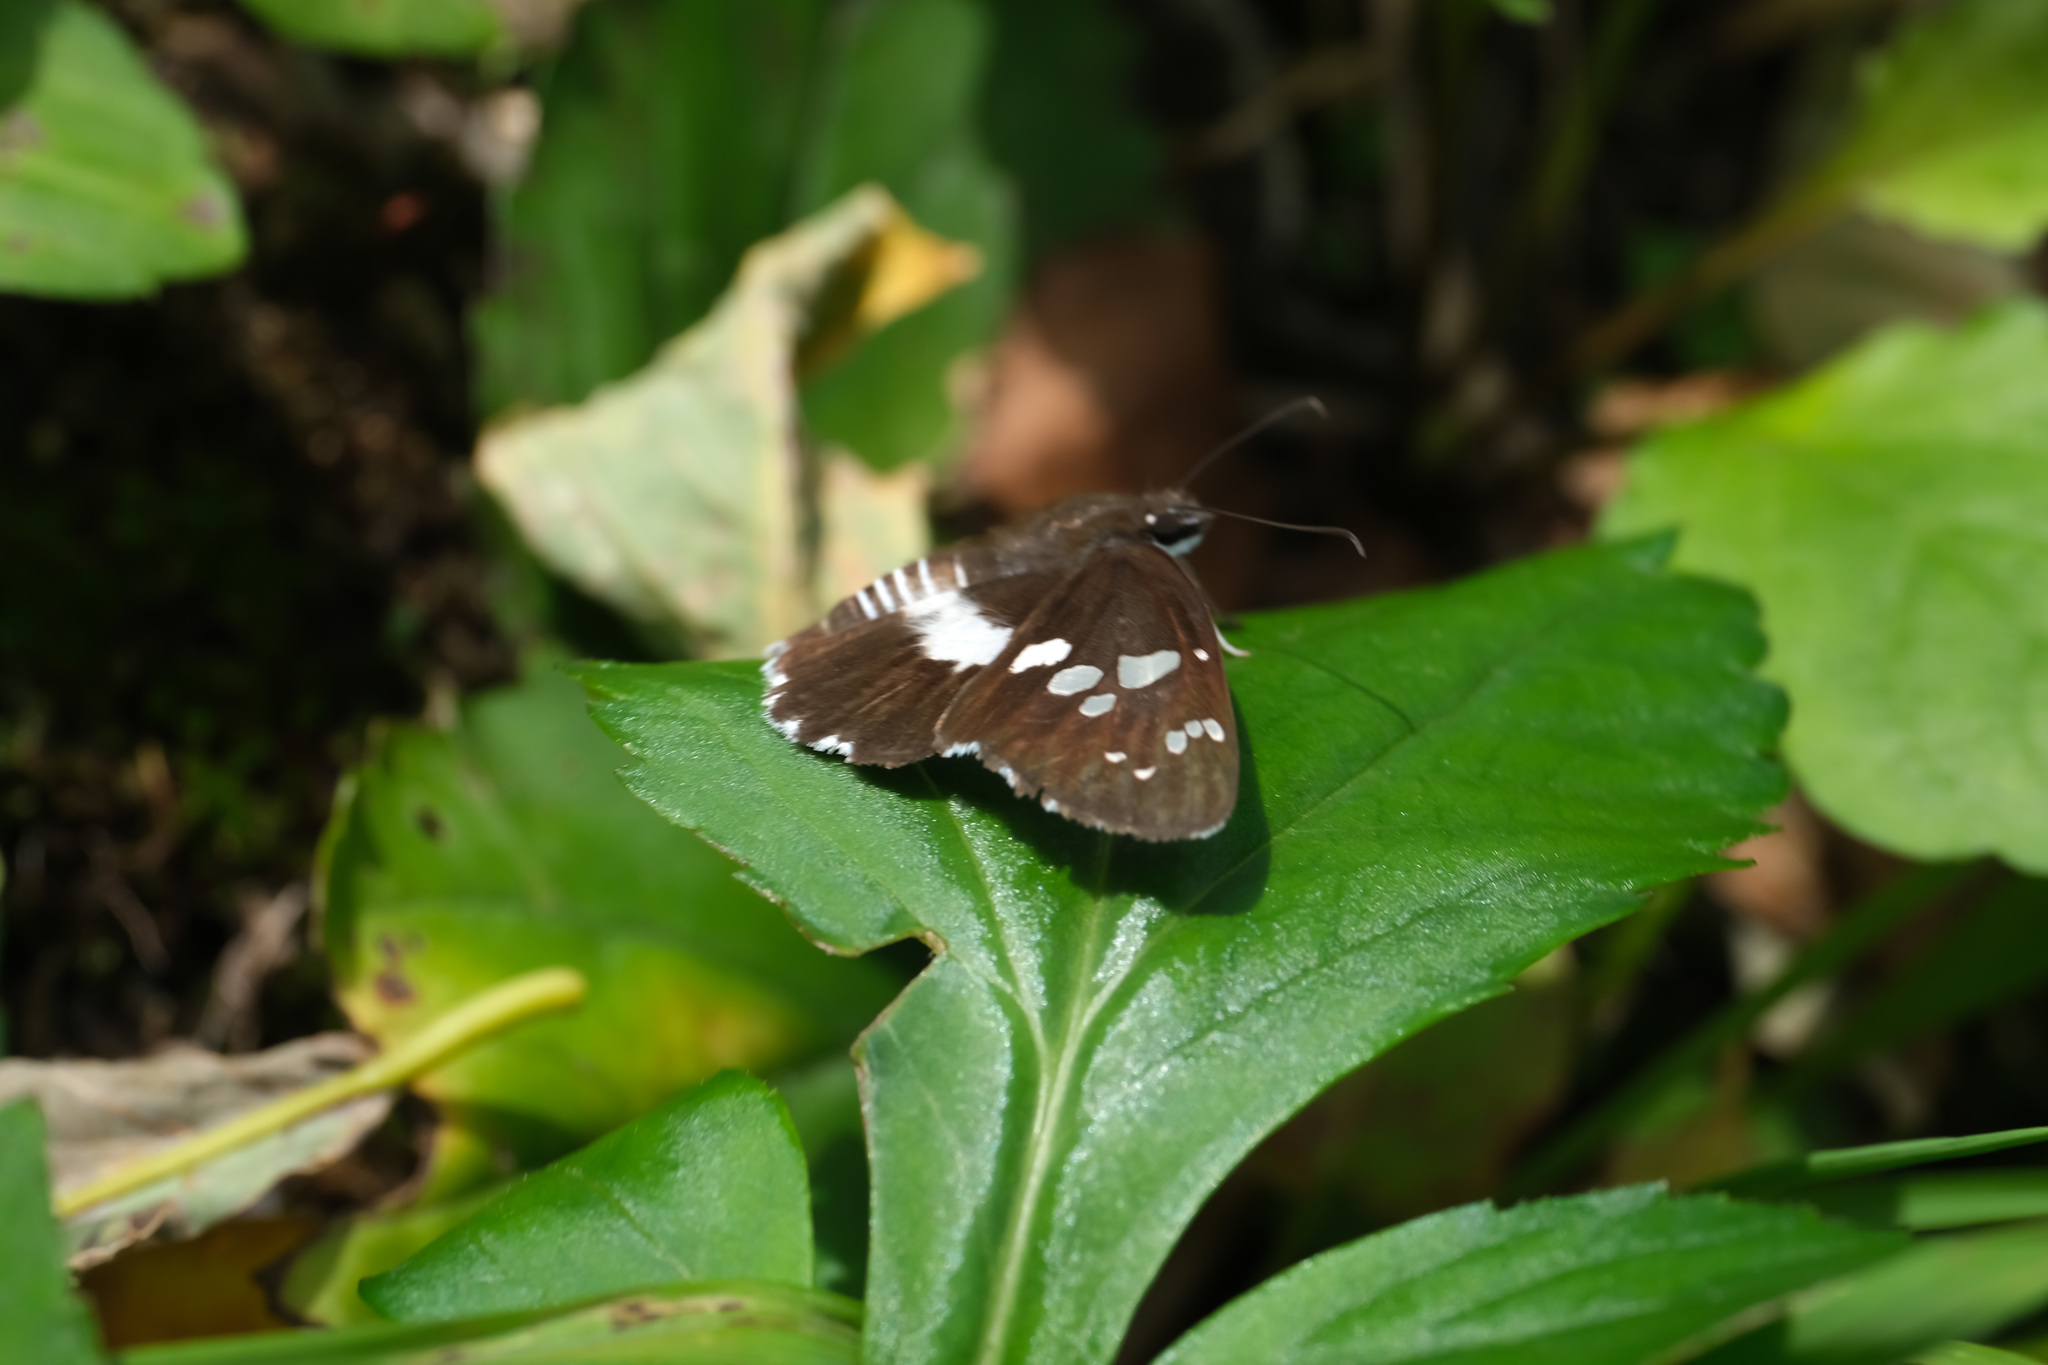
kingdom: Animalia
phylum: Arthropoda
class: Insecta
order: Lepidoptera
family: Hesperiidae
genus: Daimio
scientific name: Daimio tethys
